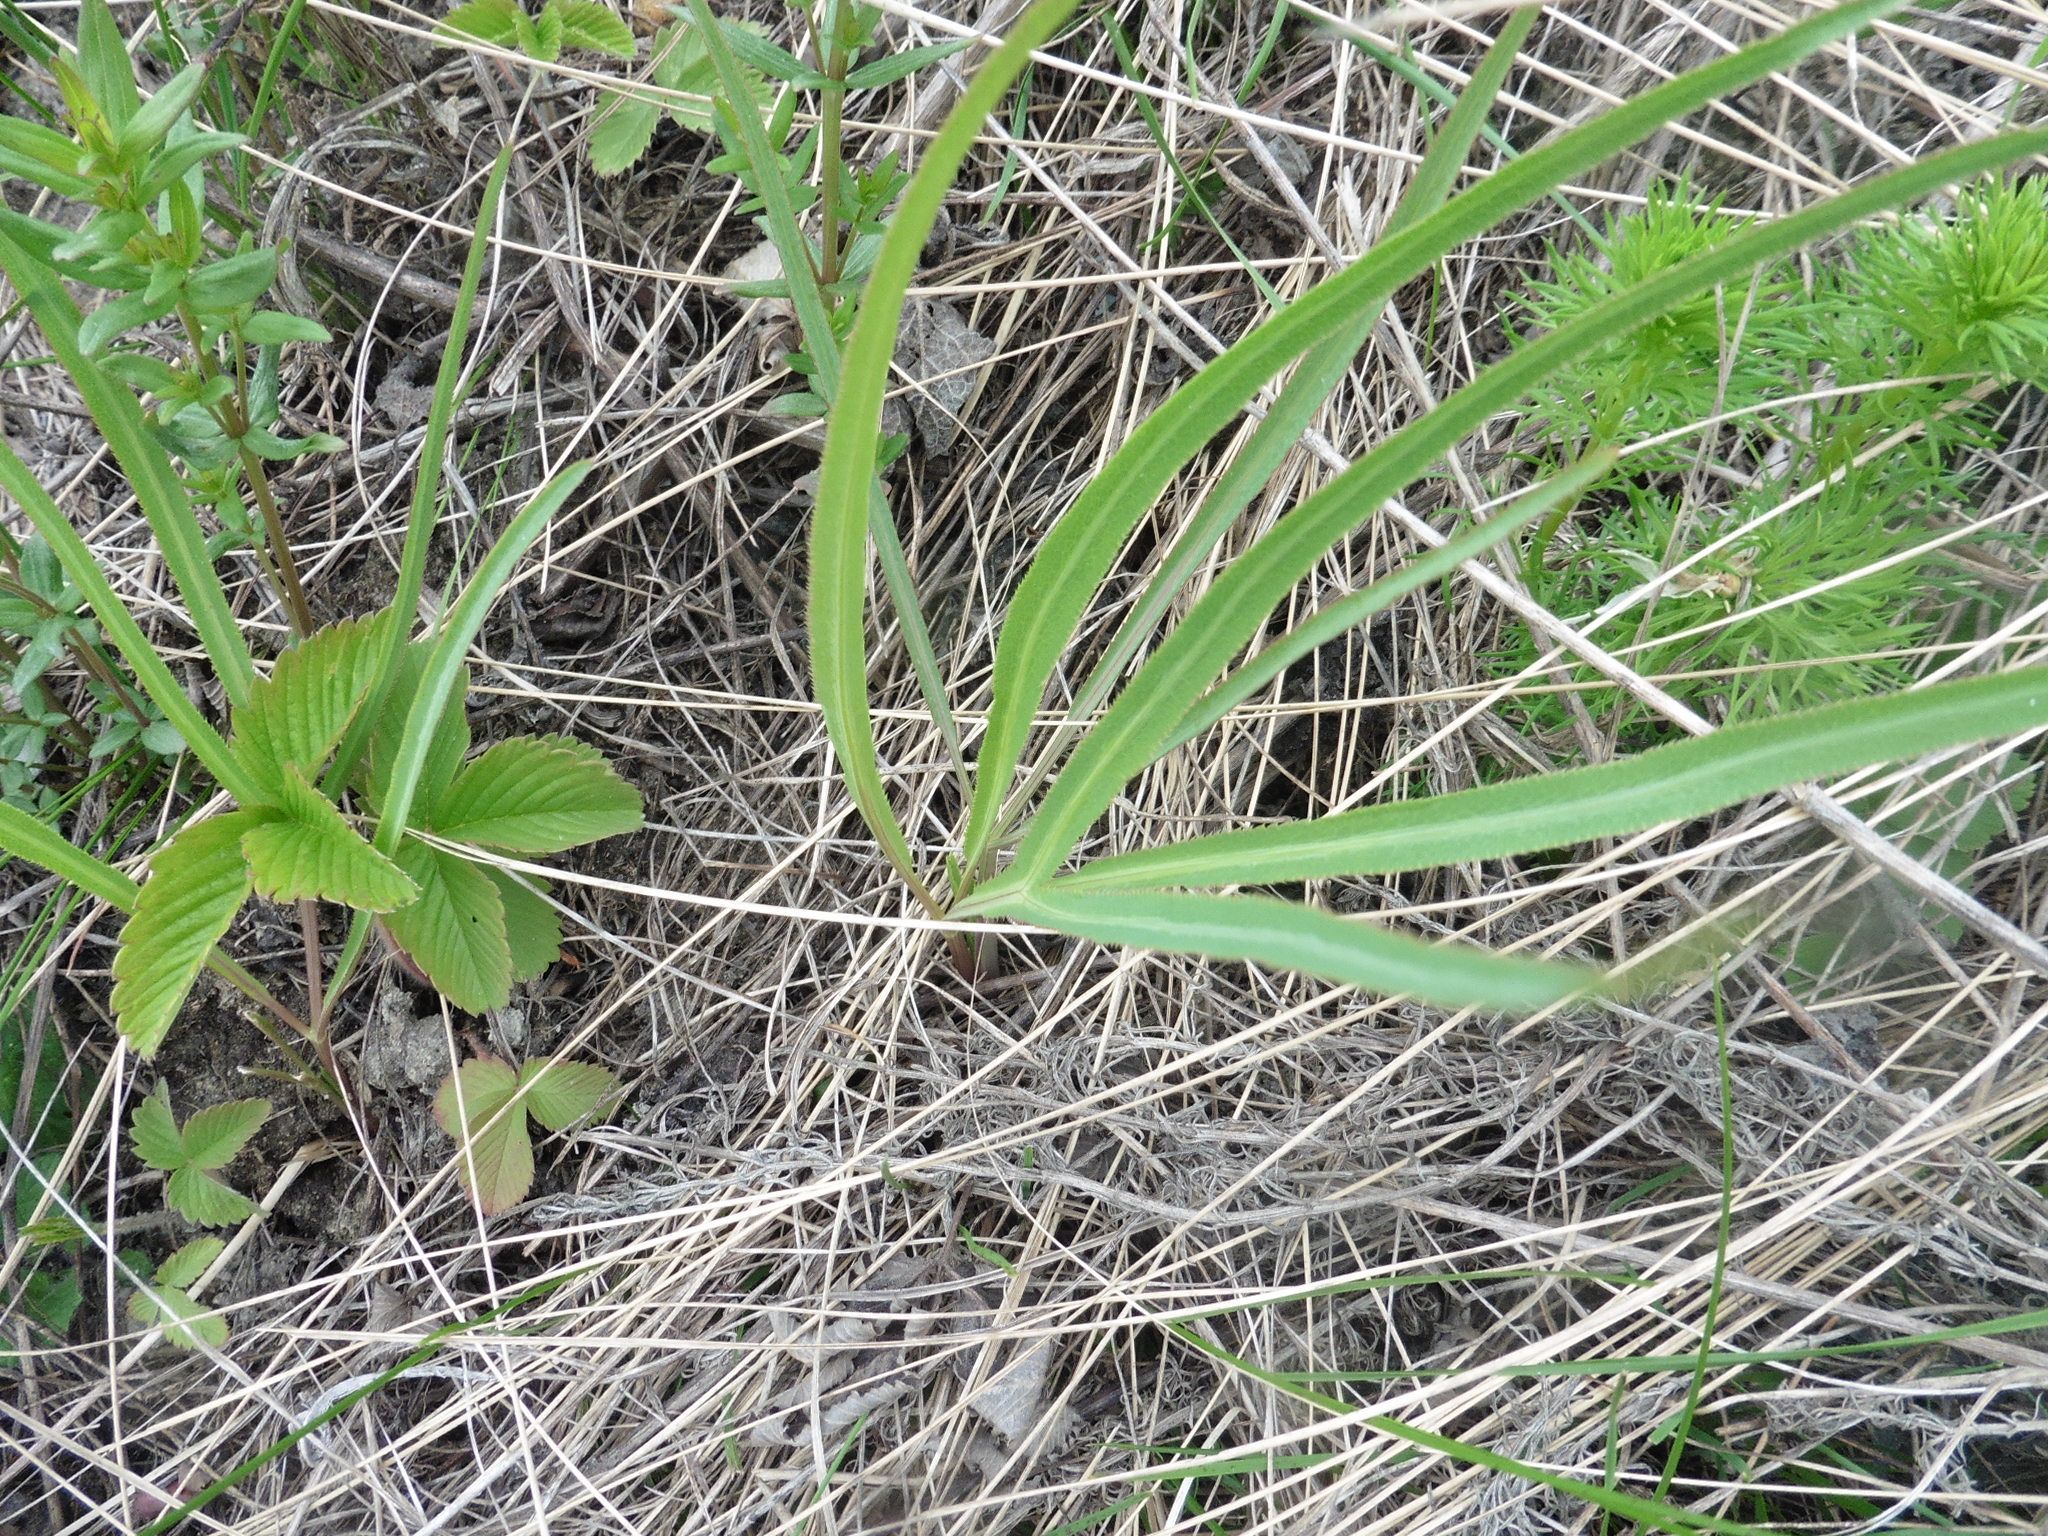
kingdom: Plantae
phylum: Tracheophyta
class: Magnoliopsida
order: Apiales
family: Apiaceae
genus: Falcaria
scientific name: Falcaria vulgaris
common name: Longleaf
